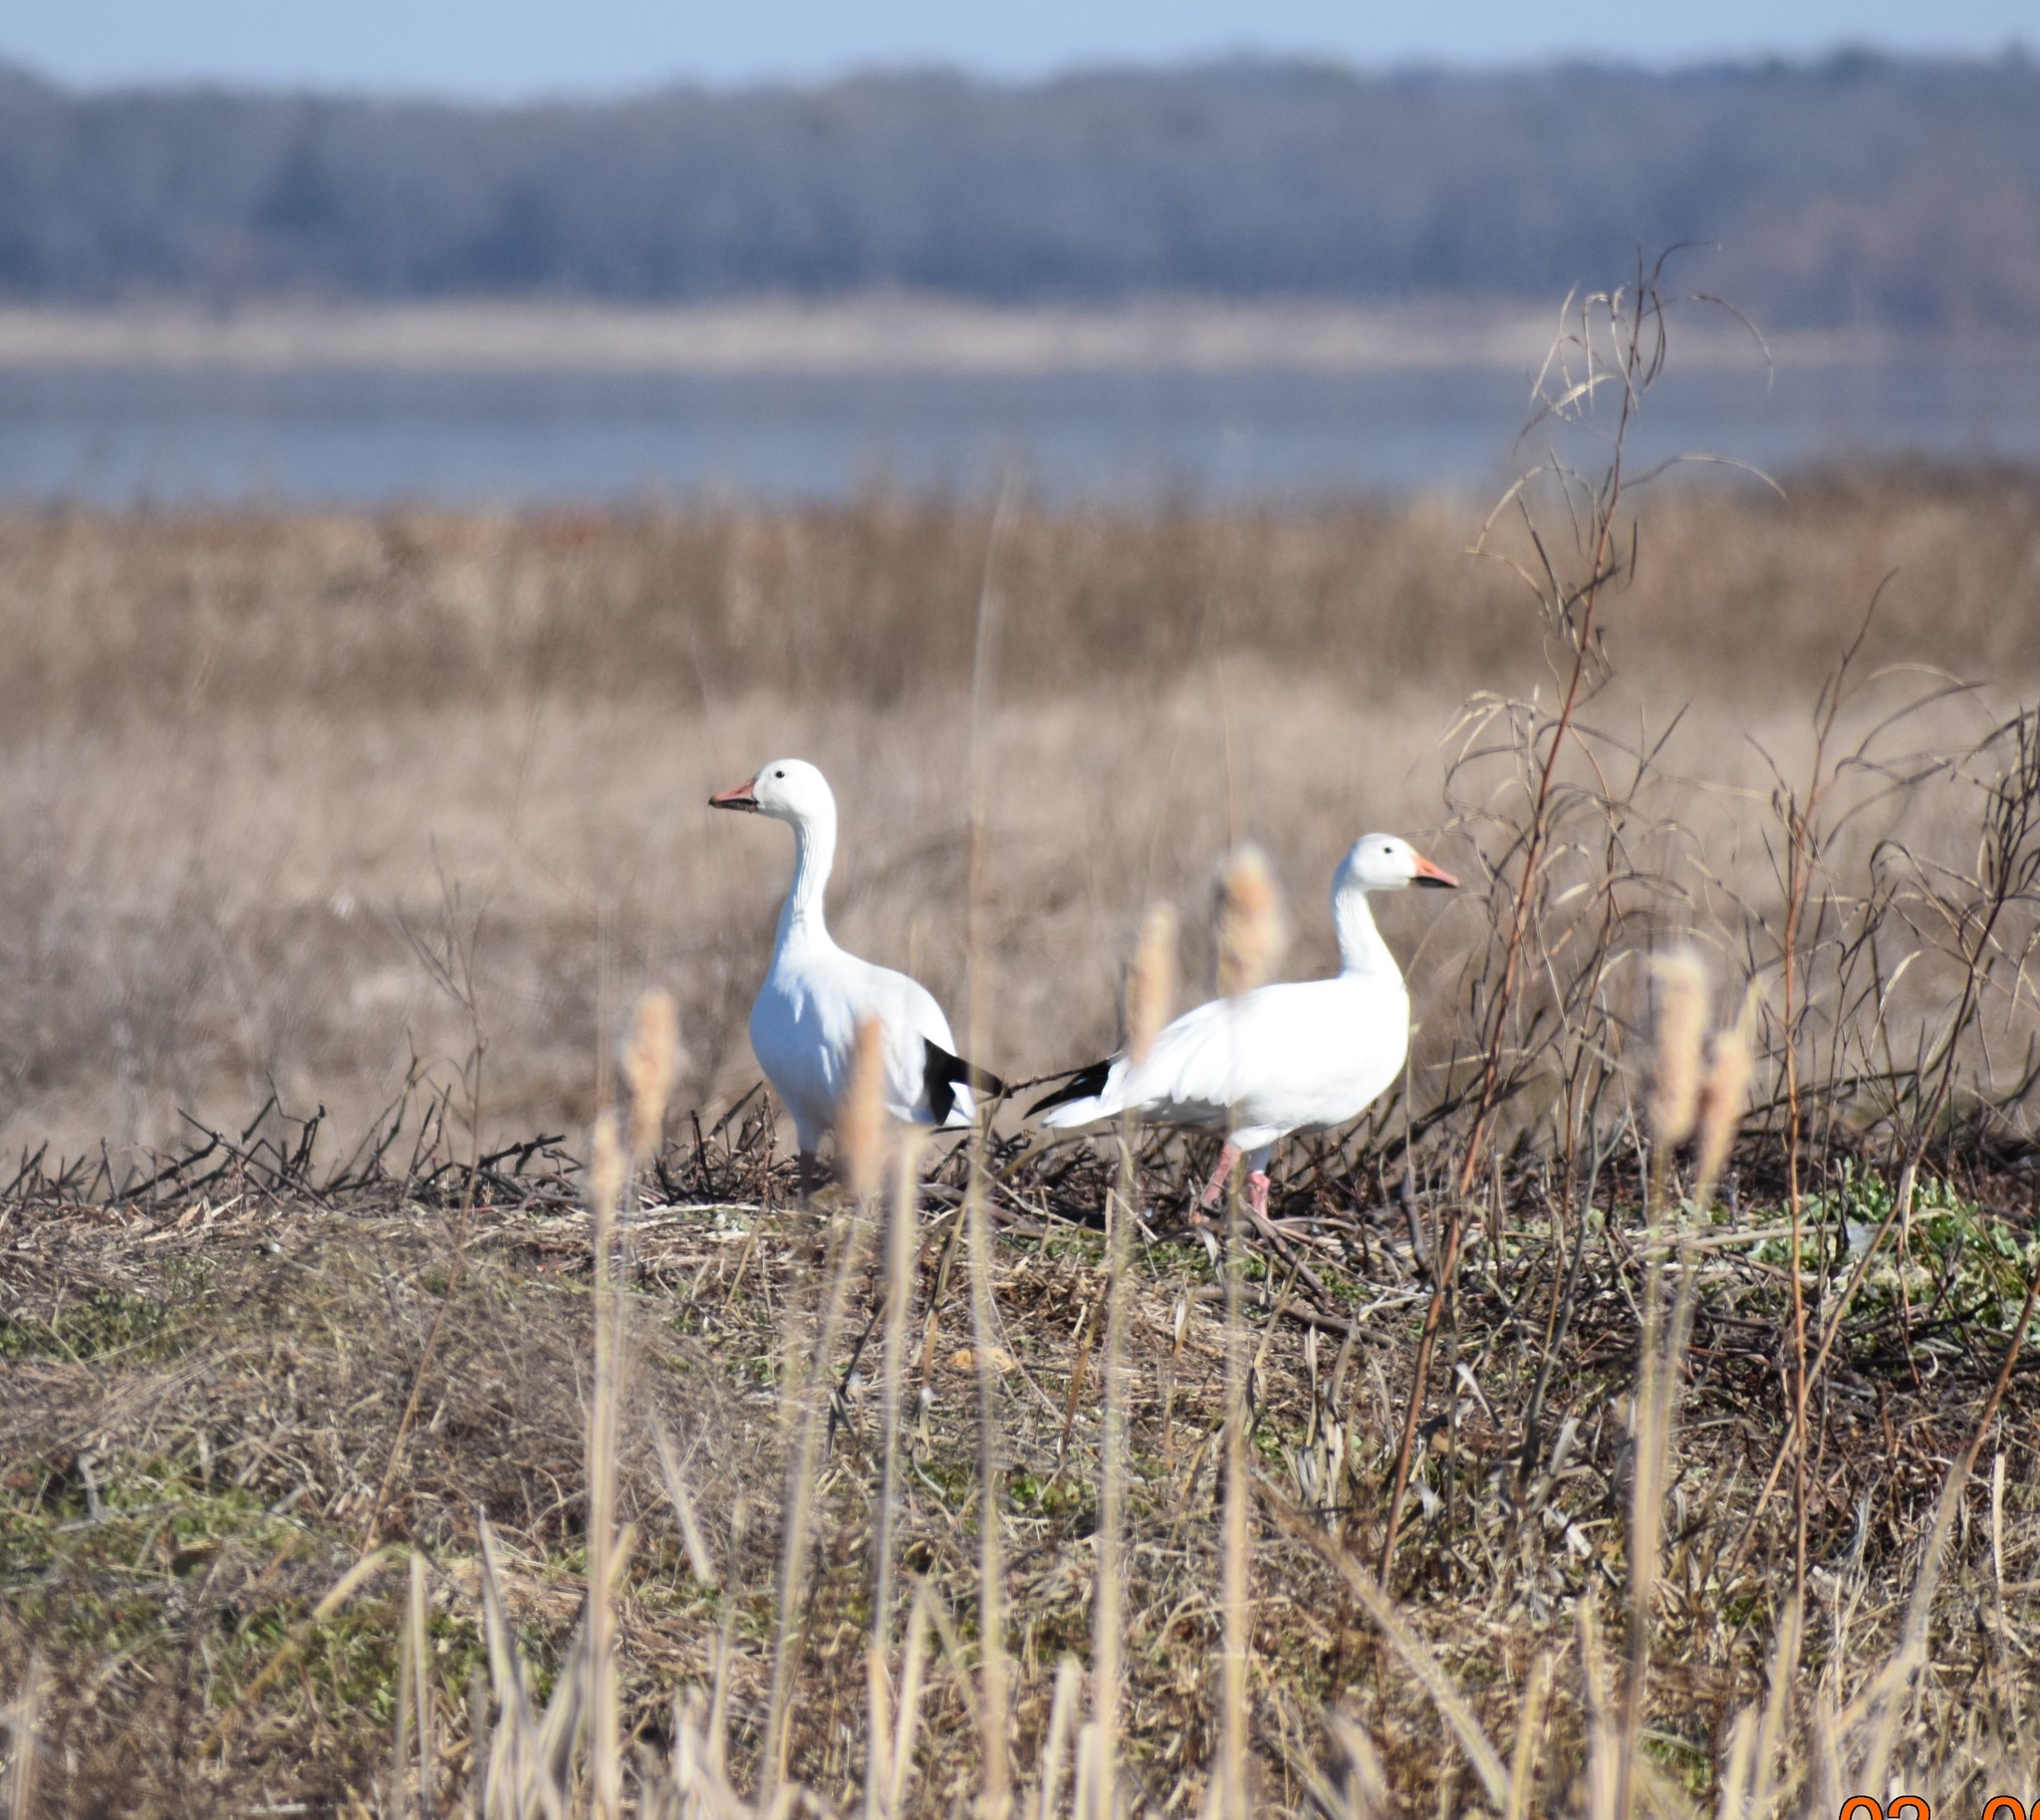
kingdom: Animalia
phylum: Chordata
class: Aves
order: Anseriformes
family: Anatidae
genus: Anser
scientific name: Anser caerulescens
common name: Snow goose
